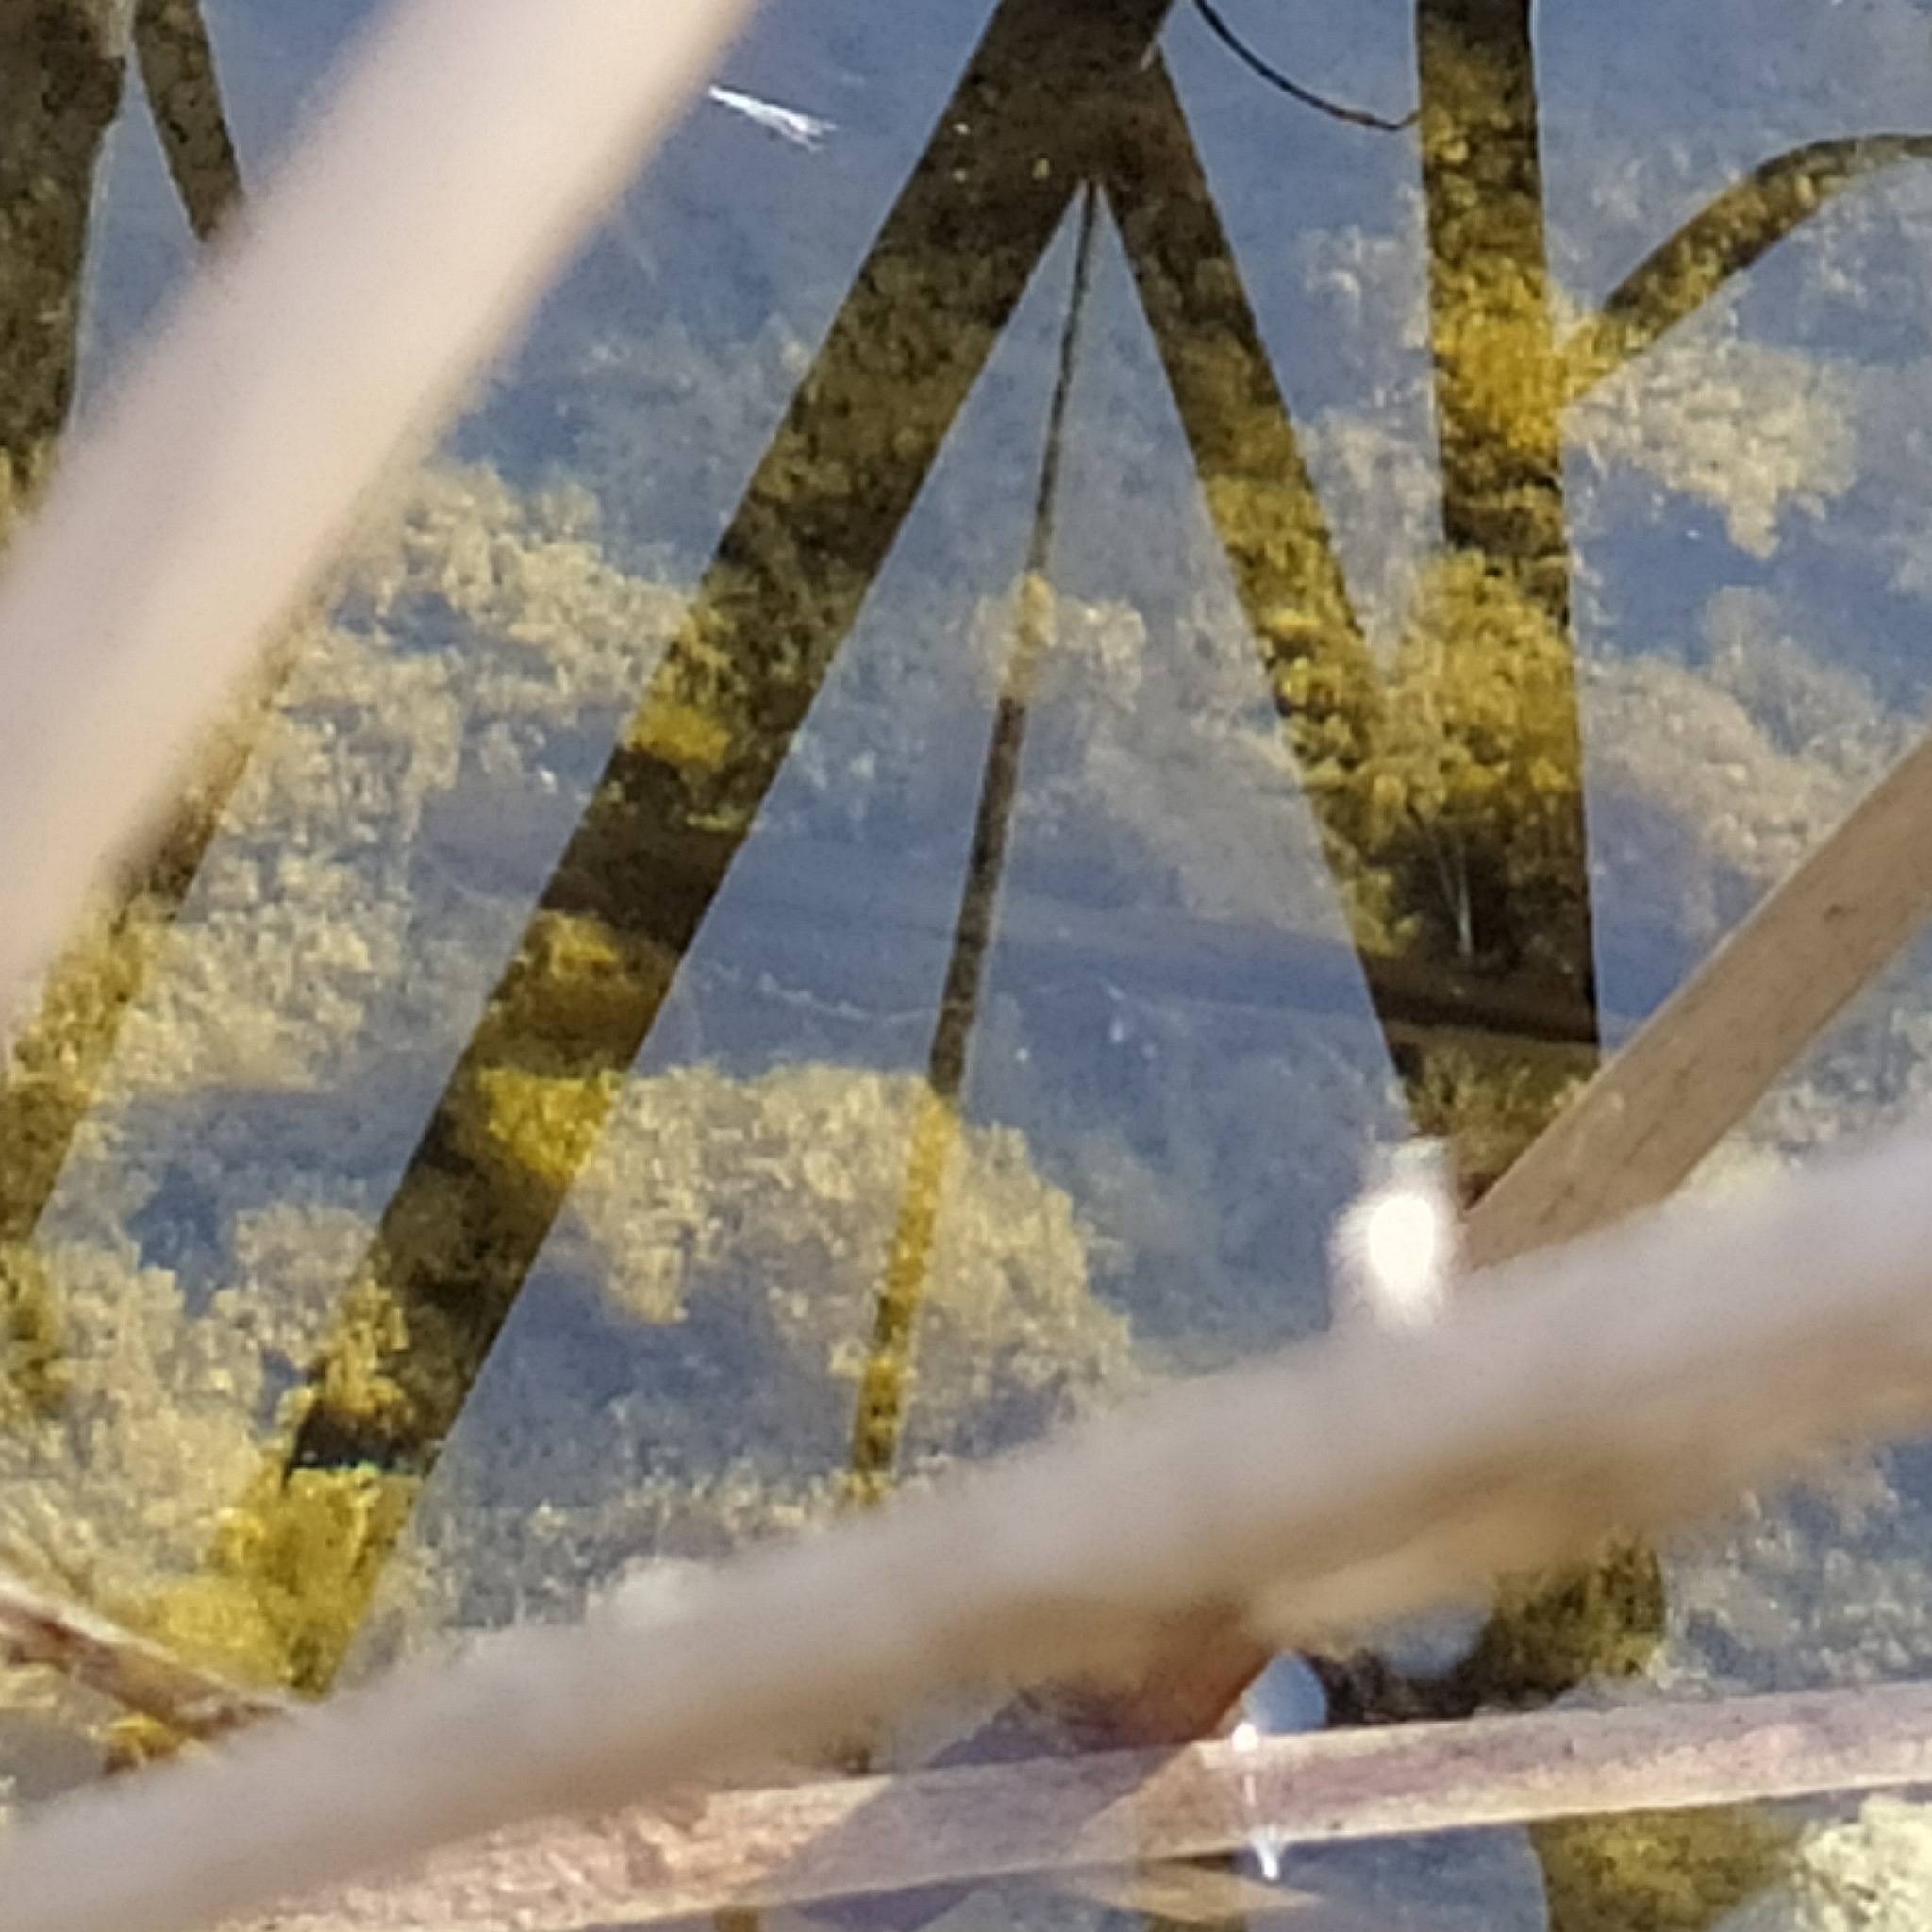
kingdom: Animalia
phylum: Chordata
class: Amphibia
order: Caudata
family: Salamandridae
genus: Lissotriton
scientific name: Lissotriton italicus
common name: Italian newt
